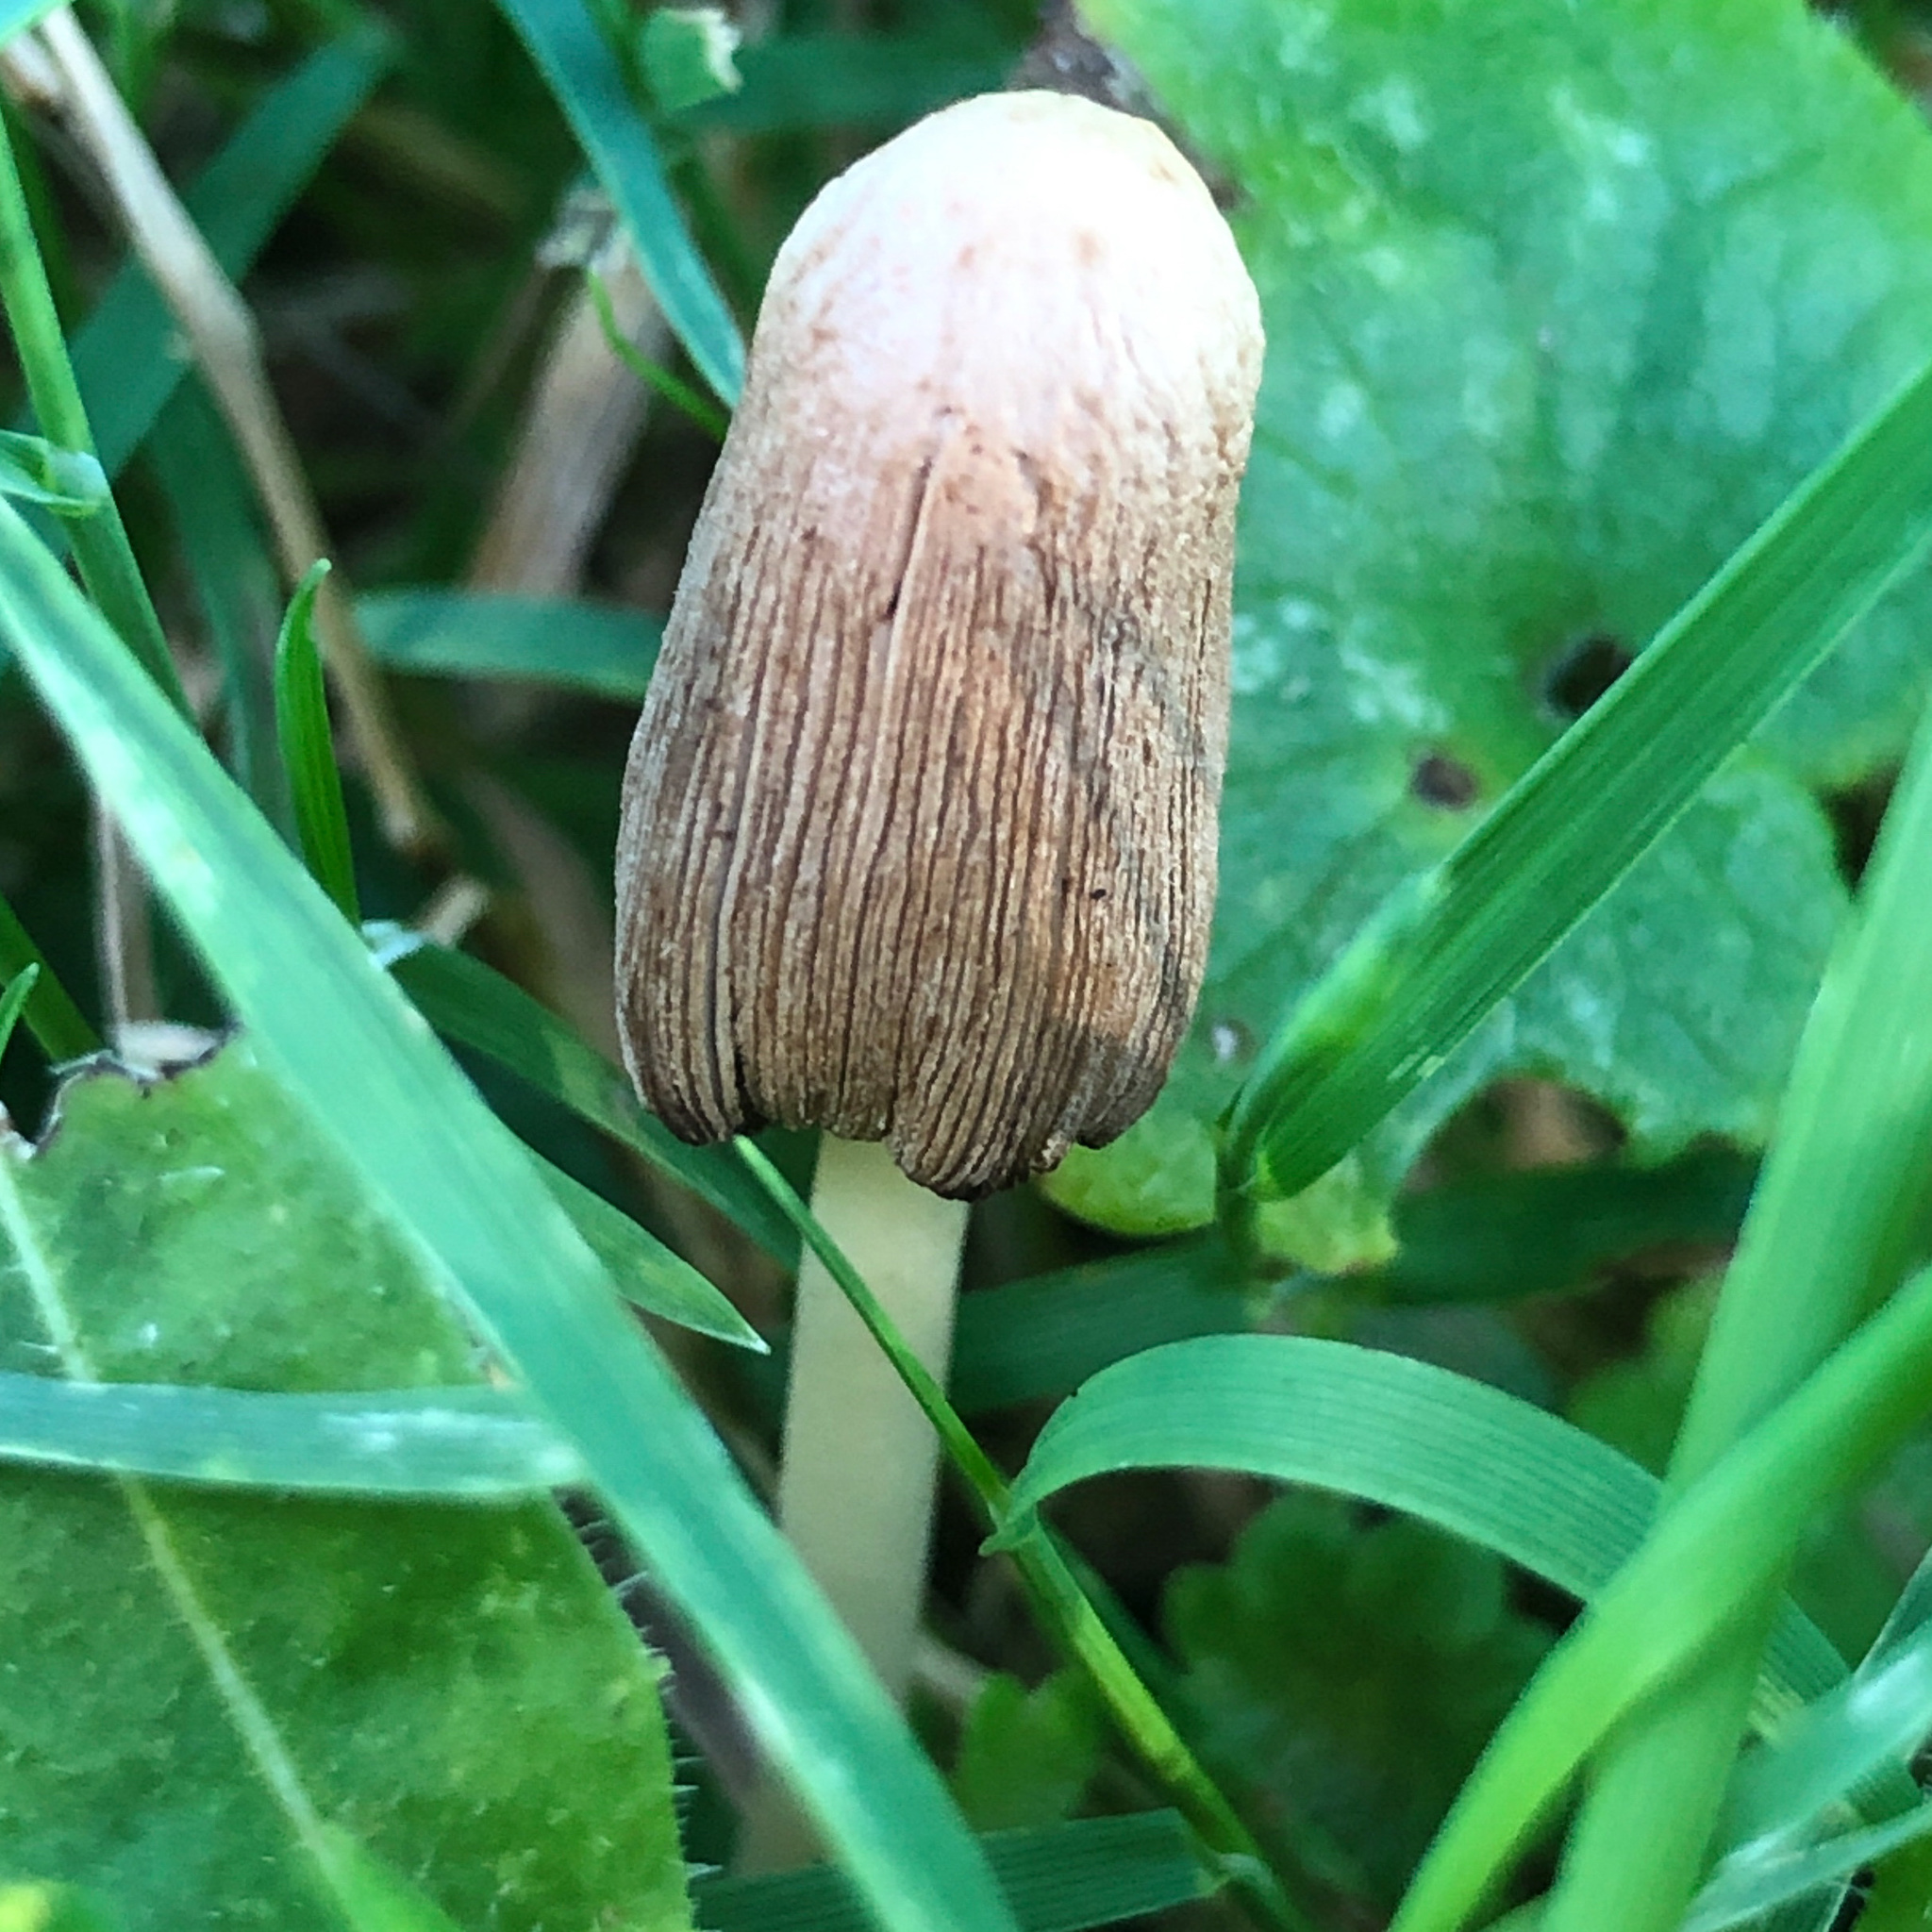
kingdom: Fungi
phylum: Basidiomycota
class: Agaricomycetes
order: Agaricales
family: Agaricaceae
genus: Coprinus
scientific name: Coprinus comatus
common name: Lawyer's wig
